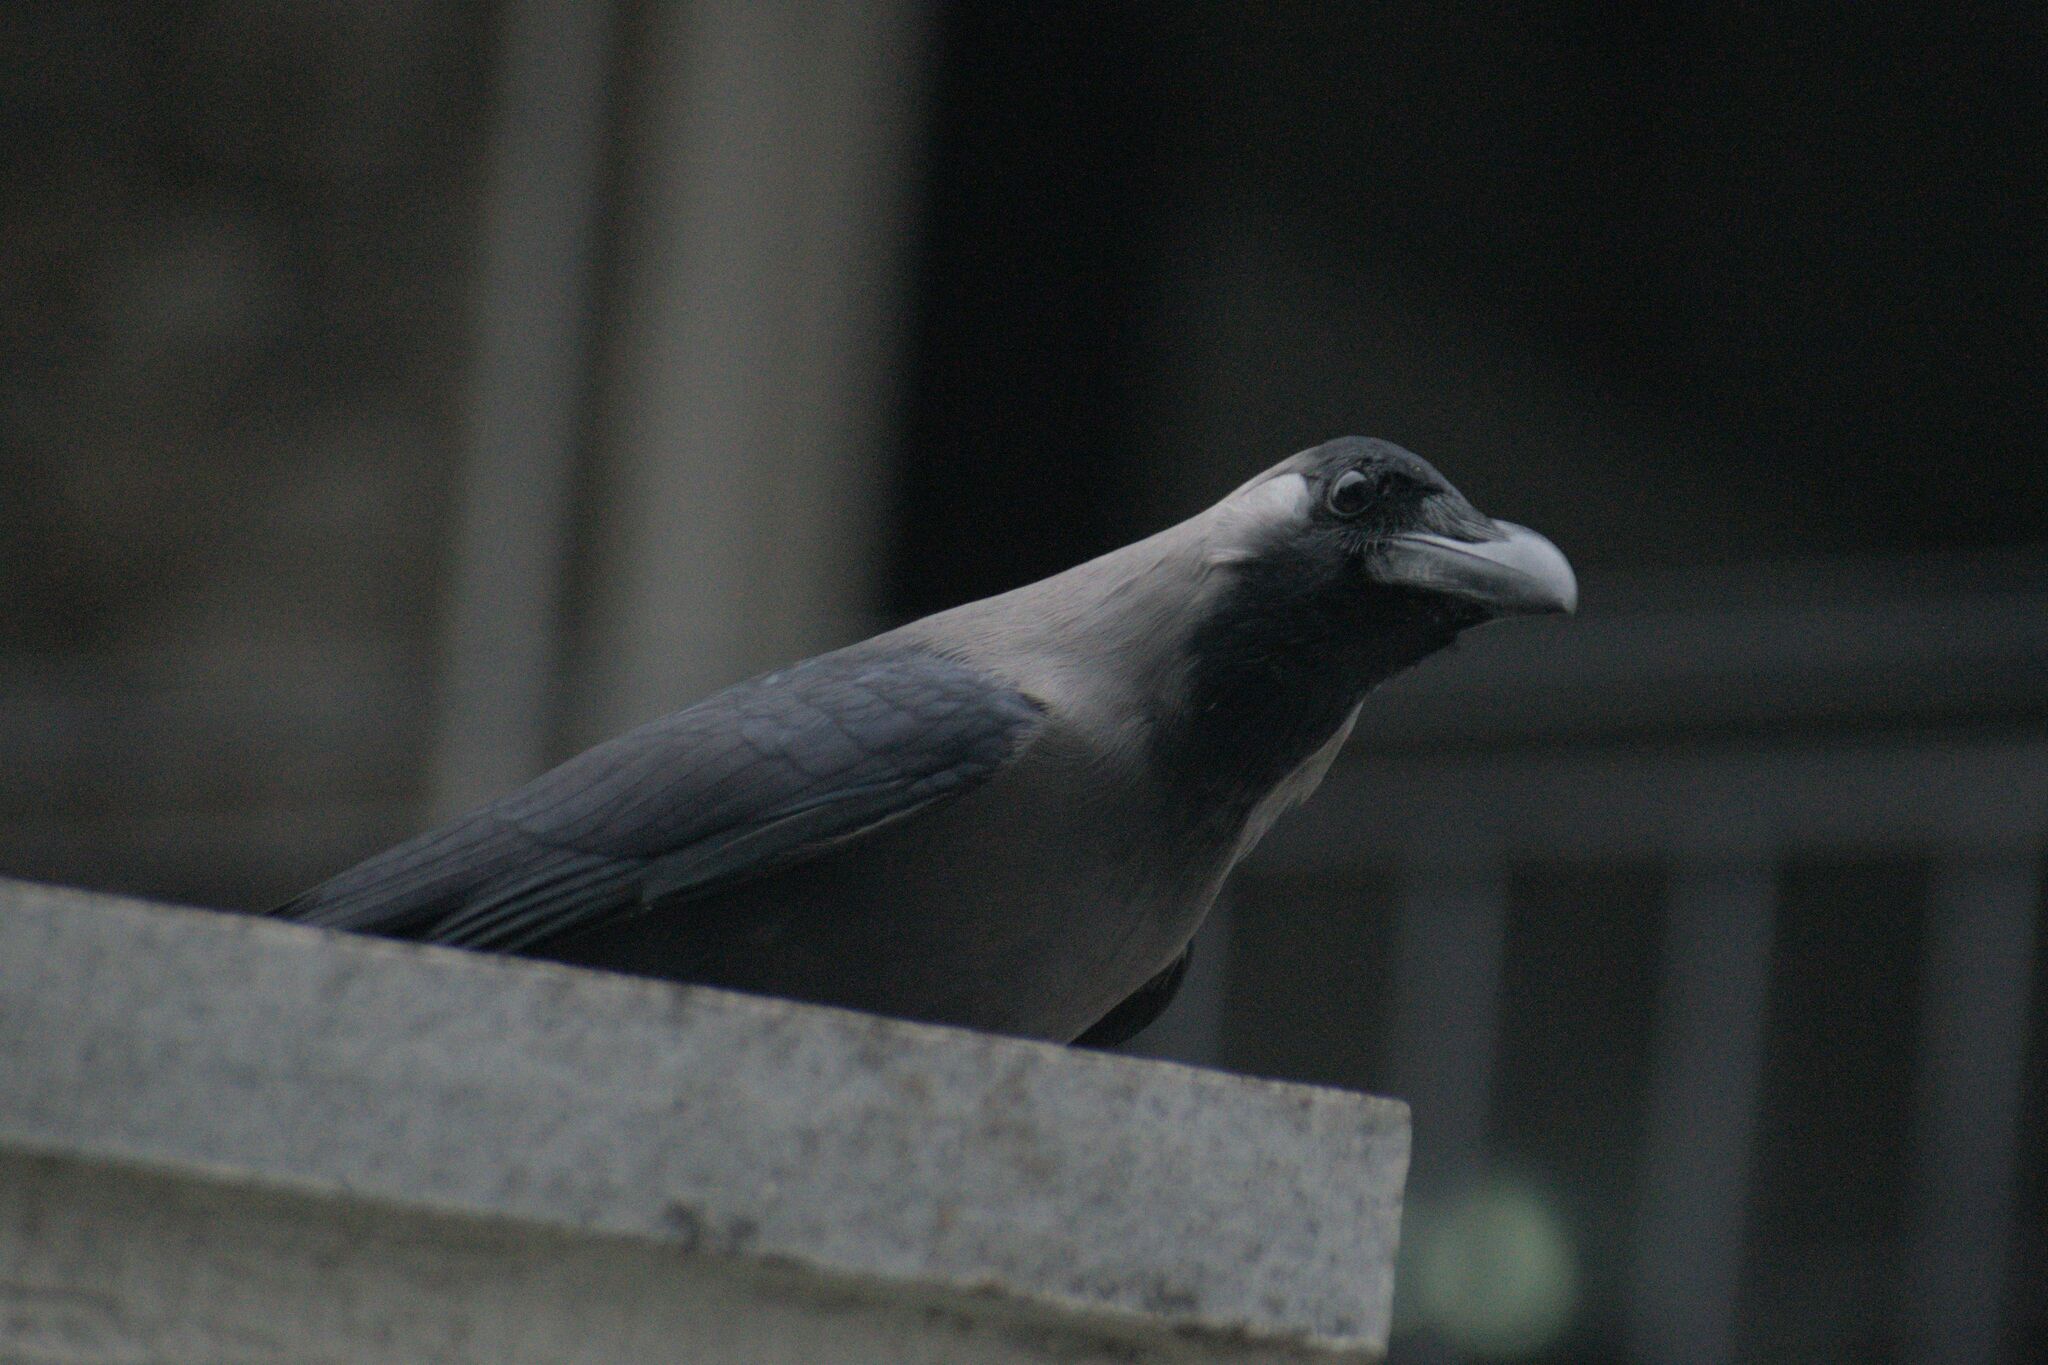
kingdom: Animalia
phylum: Chordata
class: Aves
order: Passeriformes
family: Corvidae
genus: Corvus
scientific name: Corvus splendens
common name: House crow
